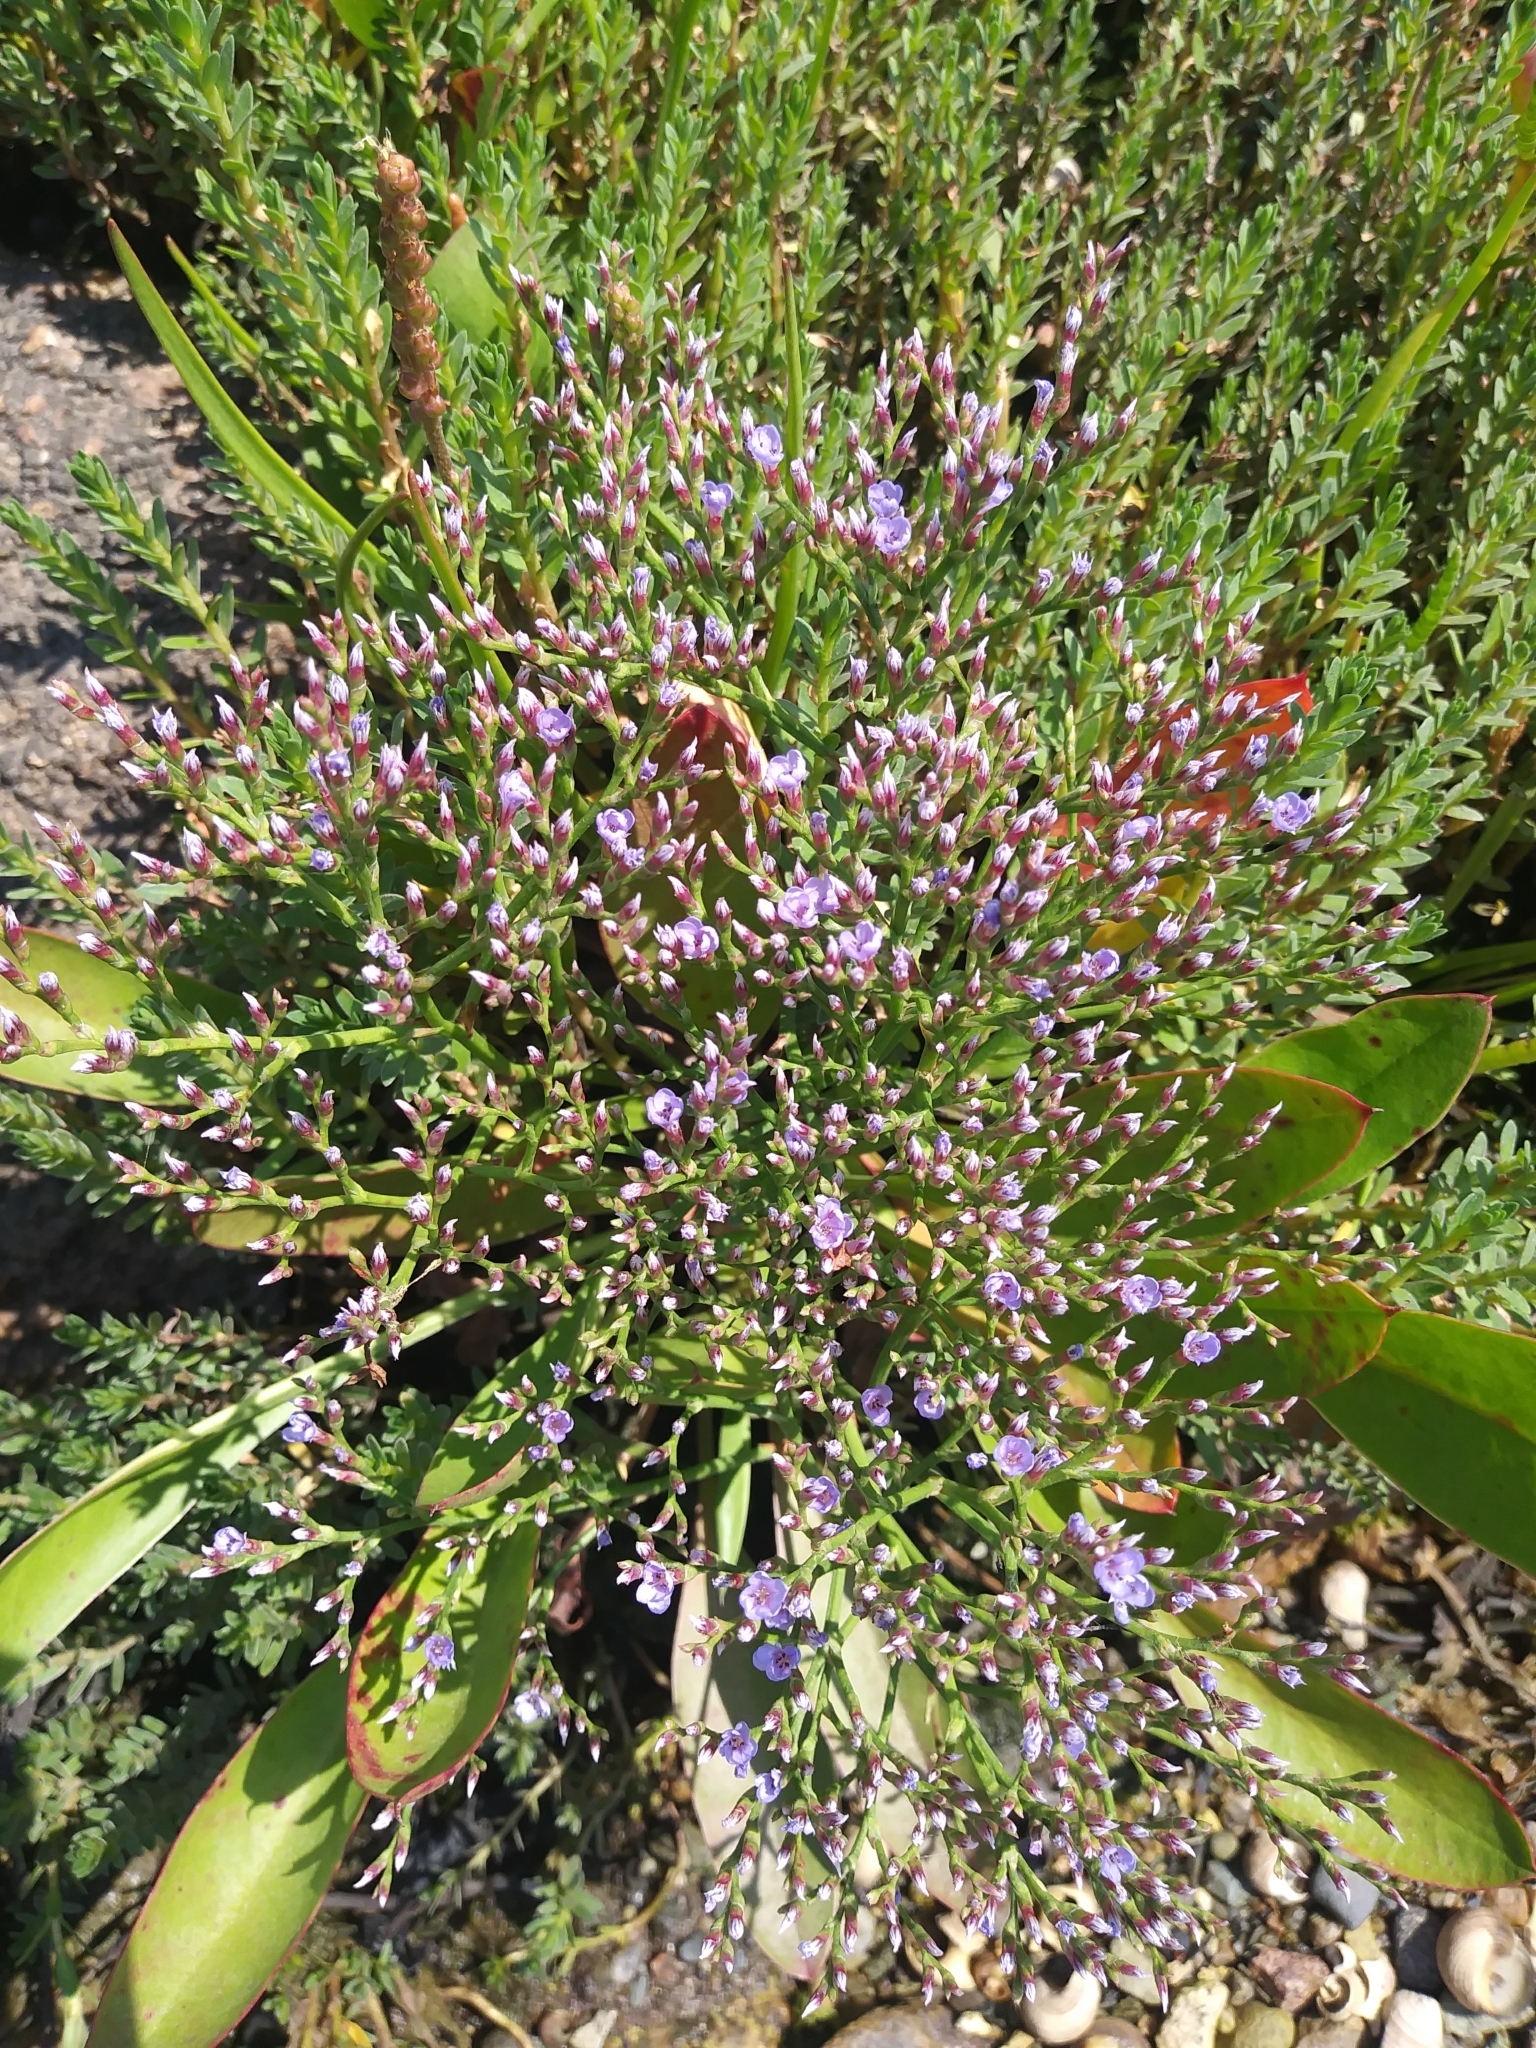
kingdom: Plantae
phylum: Tracheophyta
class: Magnoliopsida
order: Caryophyllales
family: Plumbaginaceae
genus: Limonium
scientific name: Limonium carolinianum
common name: Carolina sea lavender
